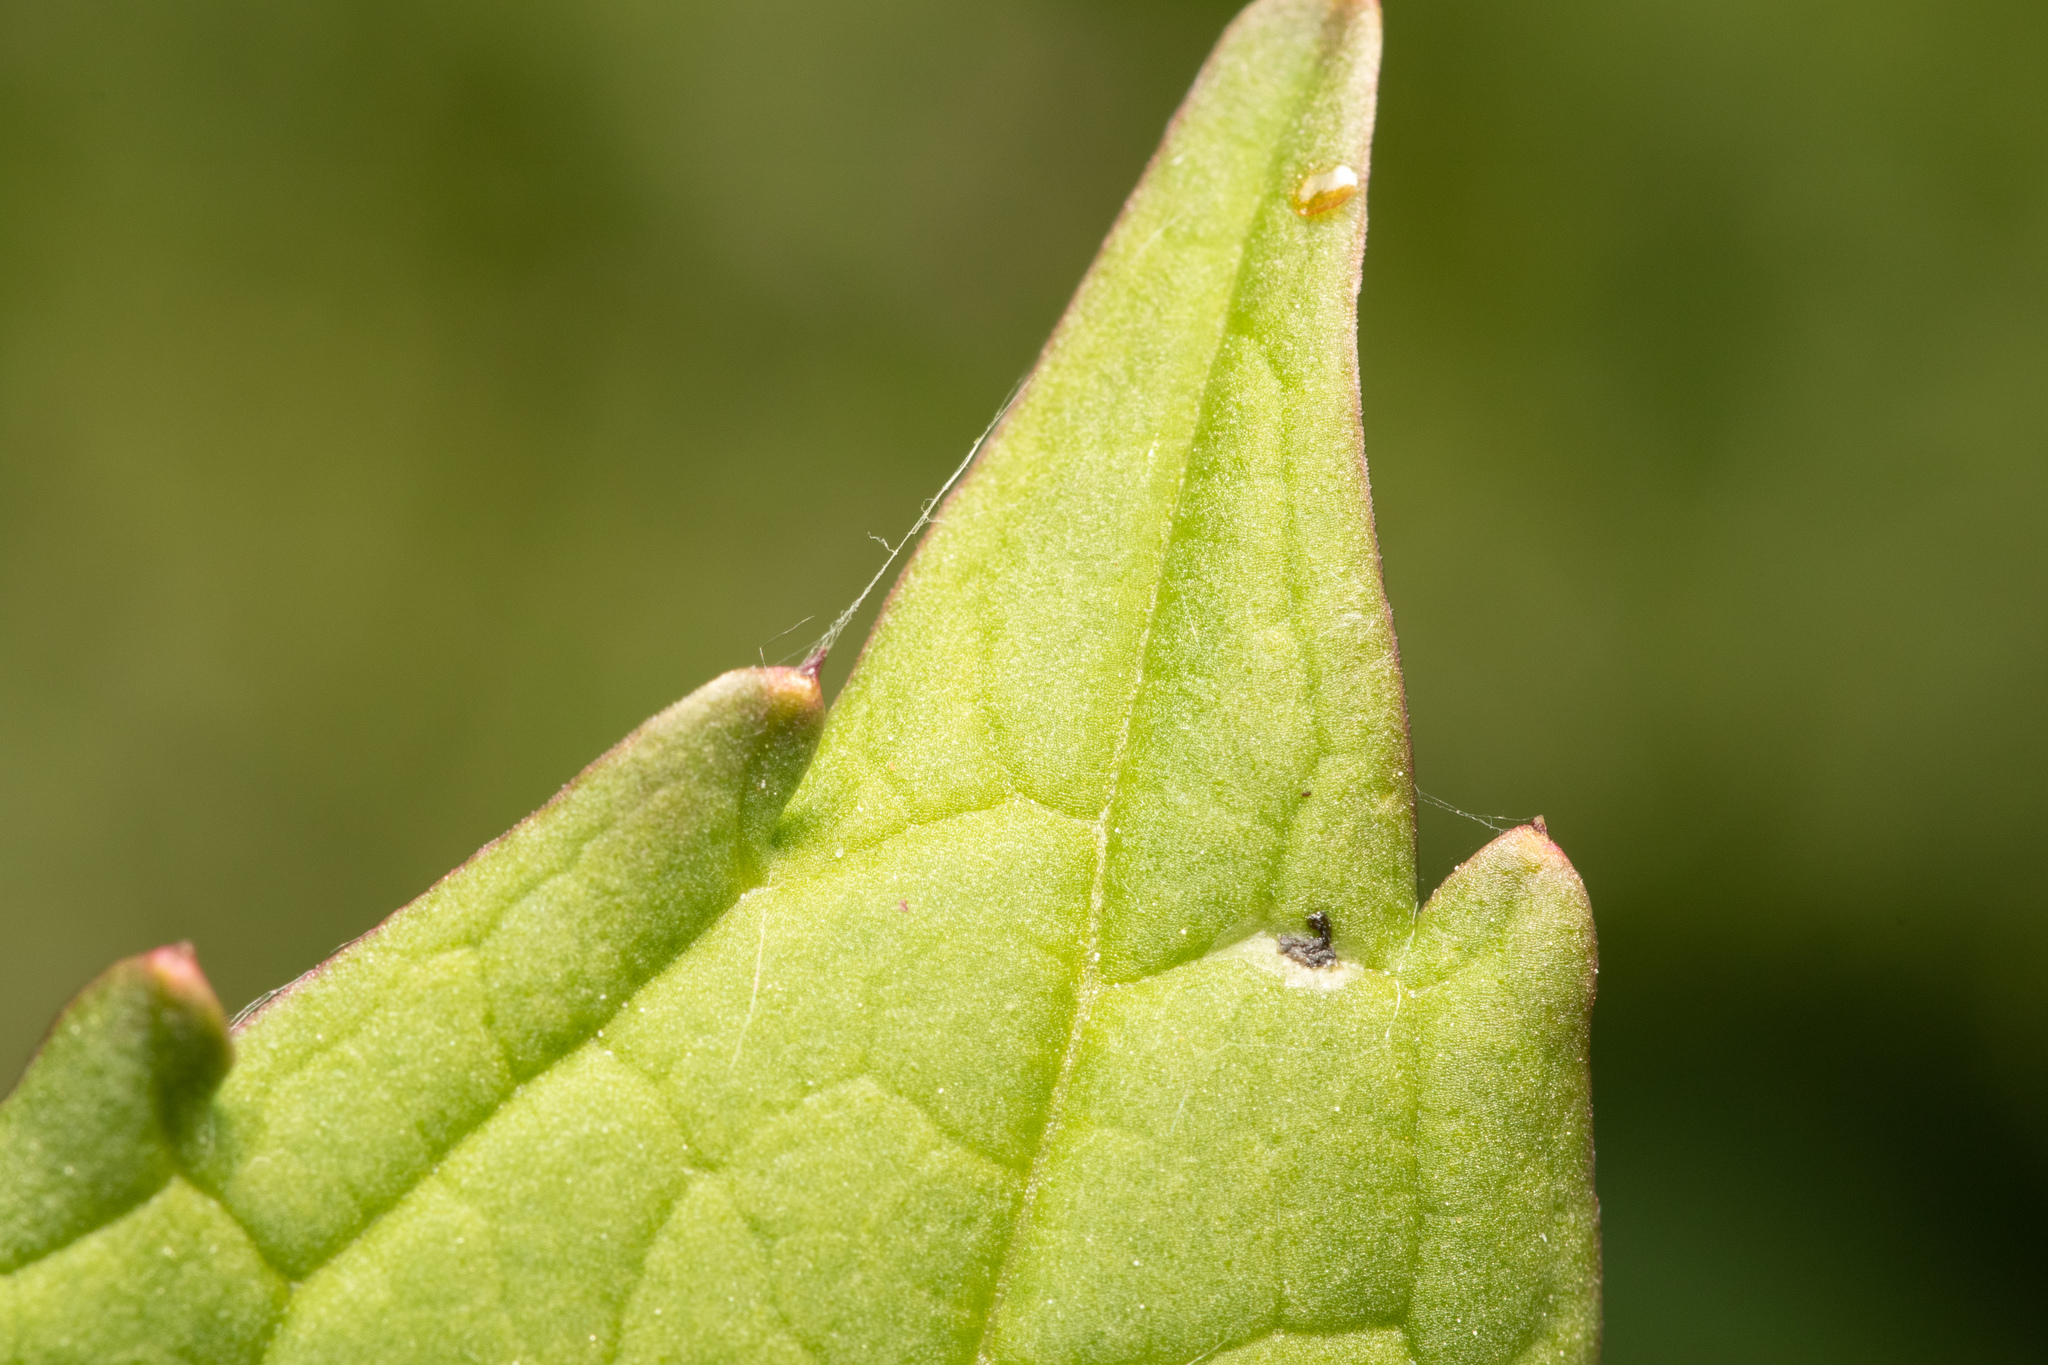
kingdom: Plantae
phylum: Tracheophyta
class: Magnoliopsida
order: Ericales
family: Balsaminaceae
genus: Impatiens
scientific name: Impatiens glandulifera
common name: Himalayan balsam
